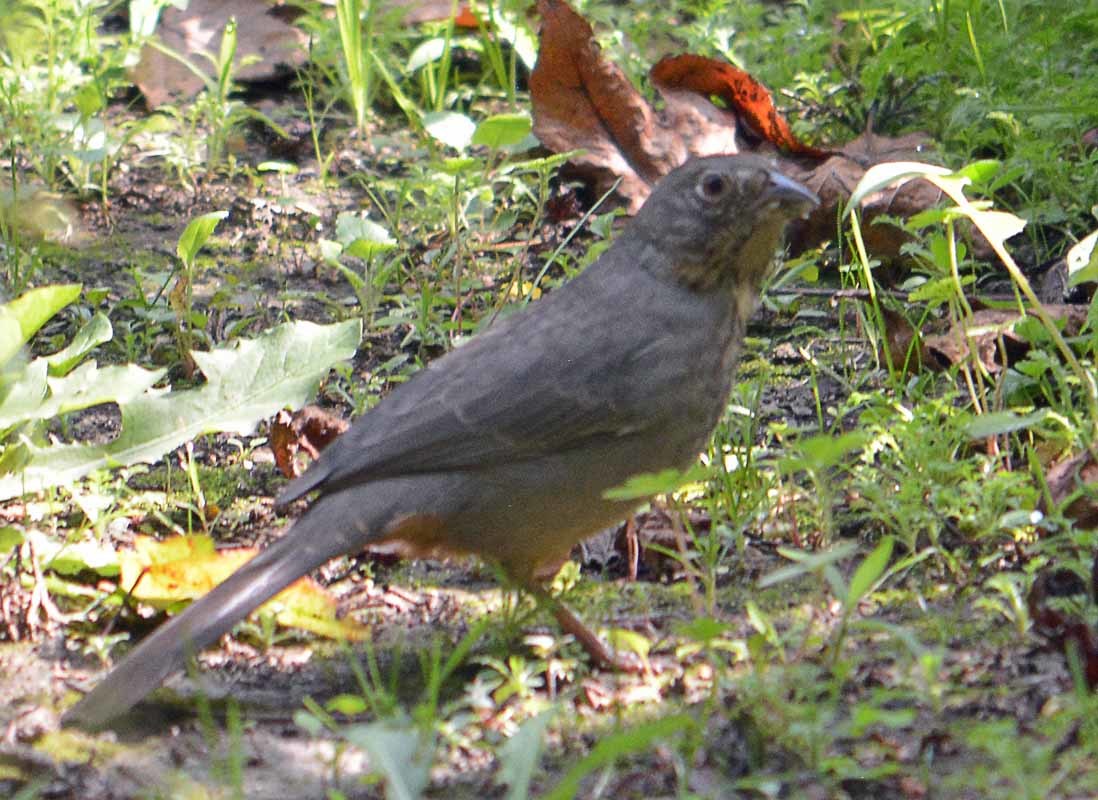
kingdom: Animalia
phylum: Chordata
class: Aves
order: Passeriformes
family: Passerellidae
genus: Melozone
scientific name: Melozone fusca
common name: Canyon towhee
